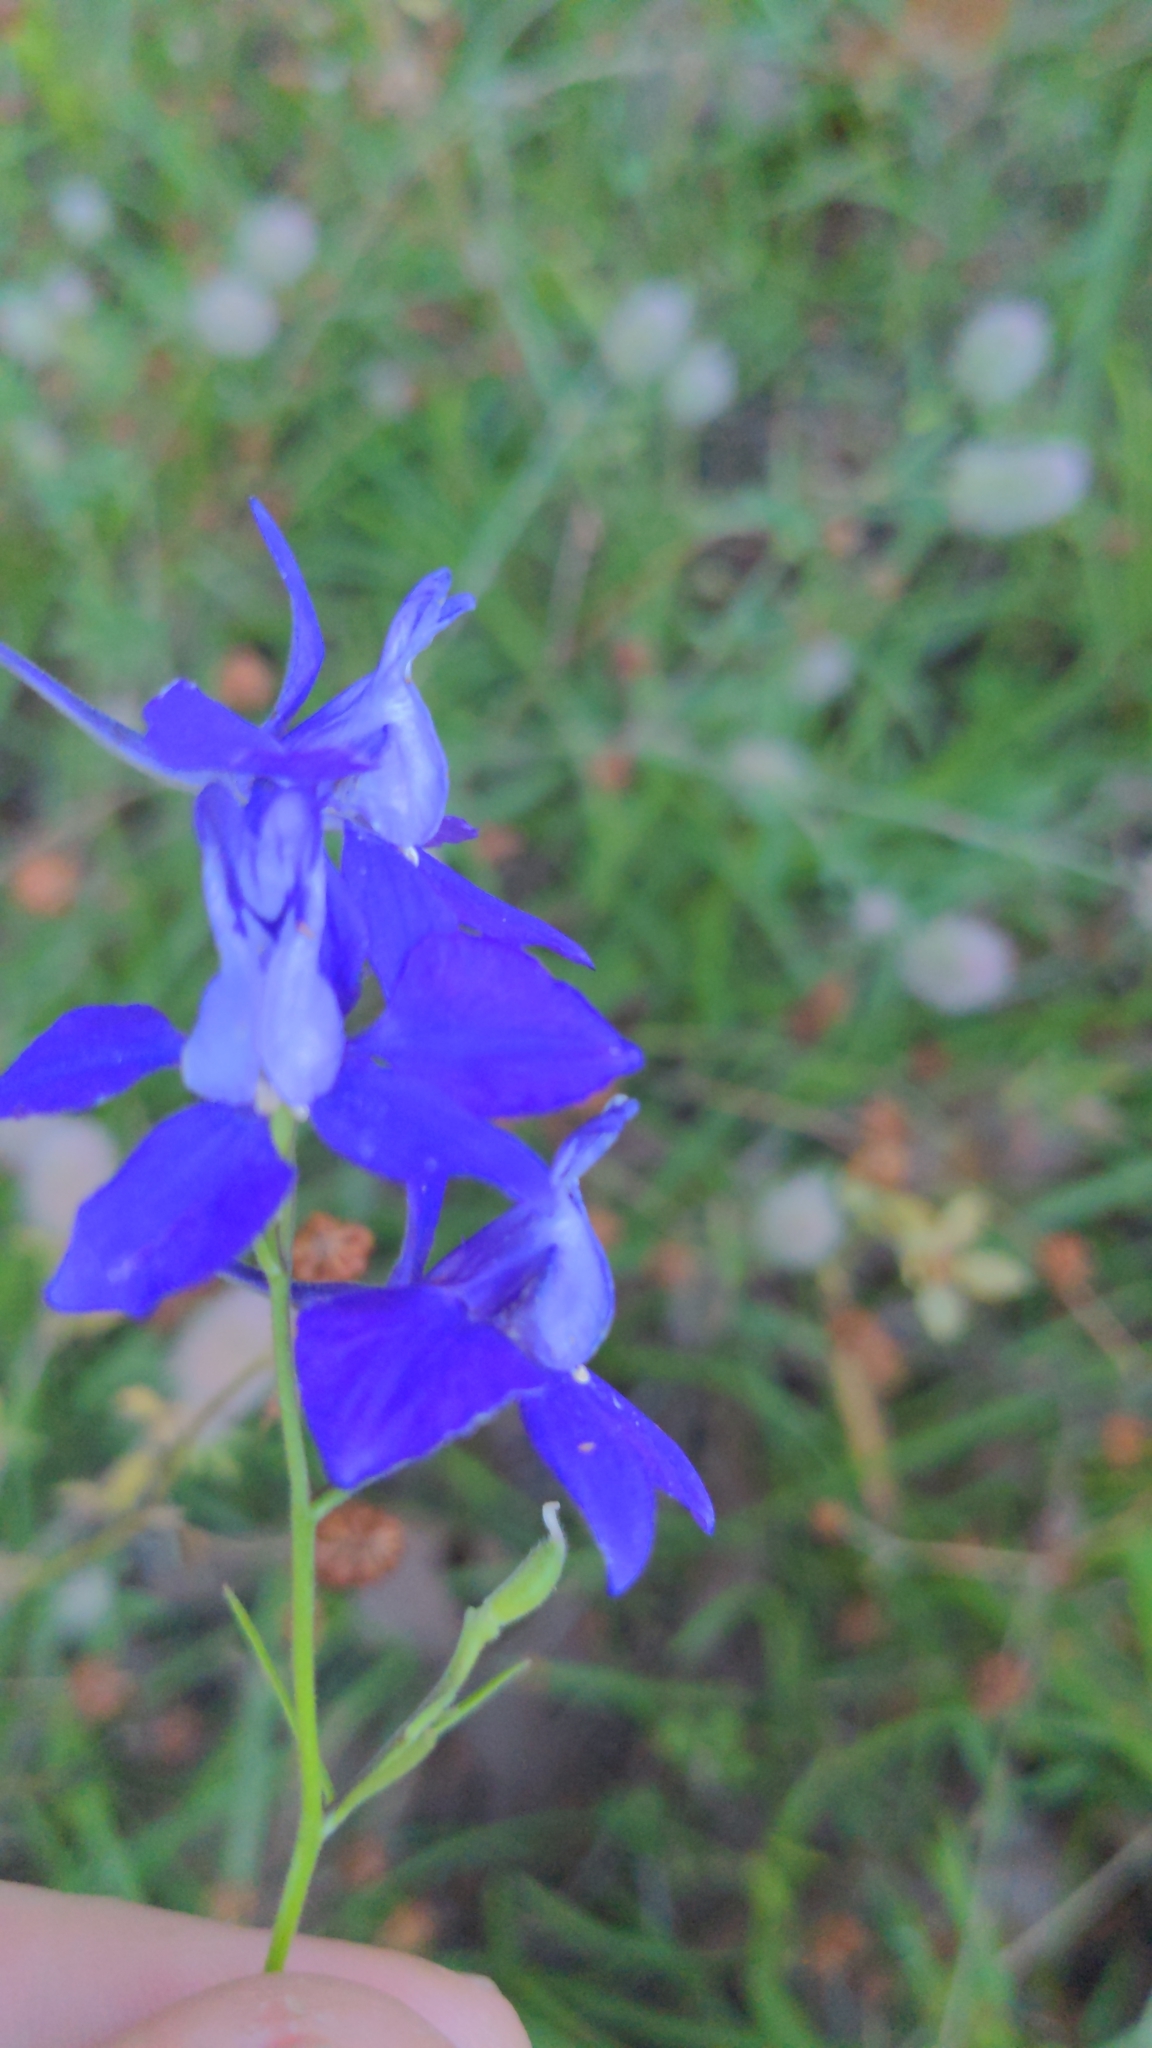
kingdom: Plantae
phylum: Tracheophyta
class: Magnoliopsida
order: Ranunculales
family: Ranunculaceae
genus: Delphinium
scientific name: Delphinium ajacis
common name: Doubtful knight's-spur
